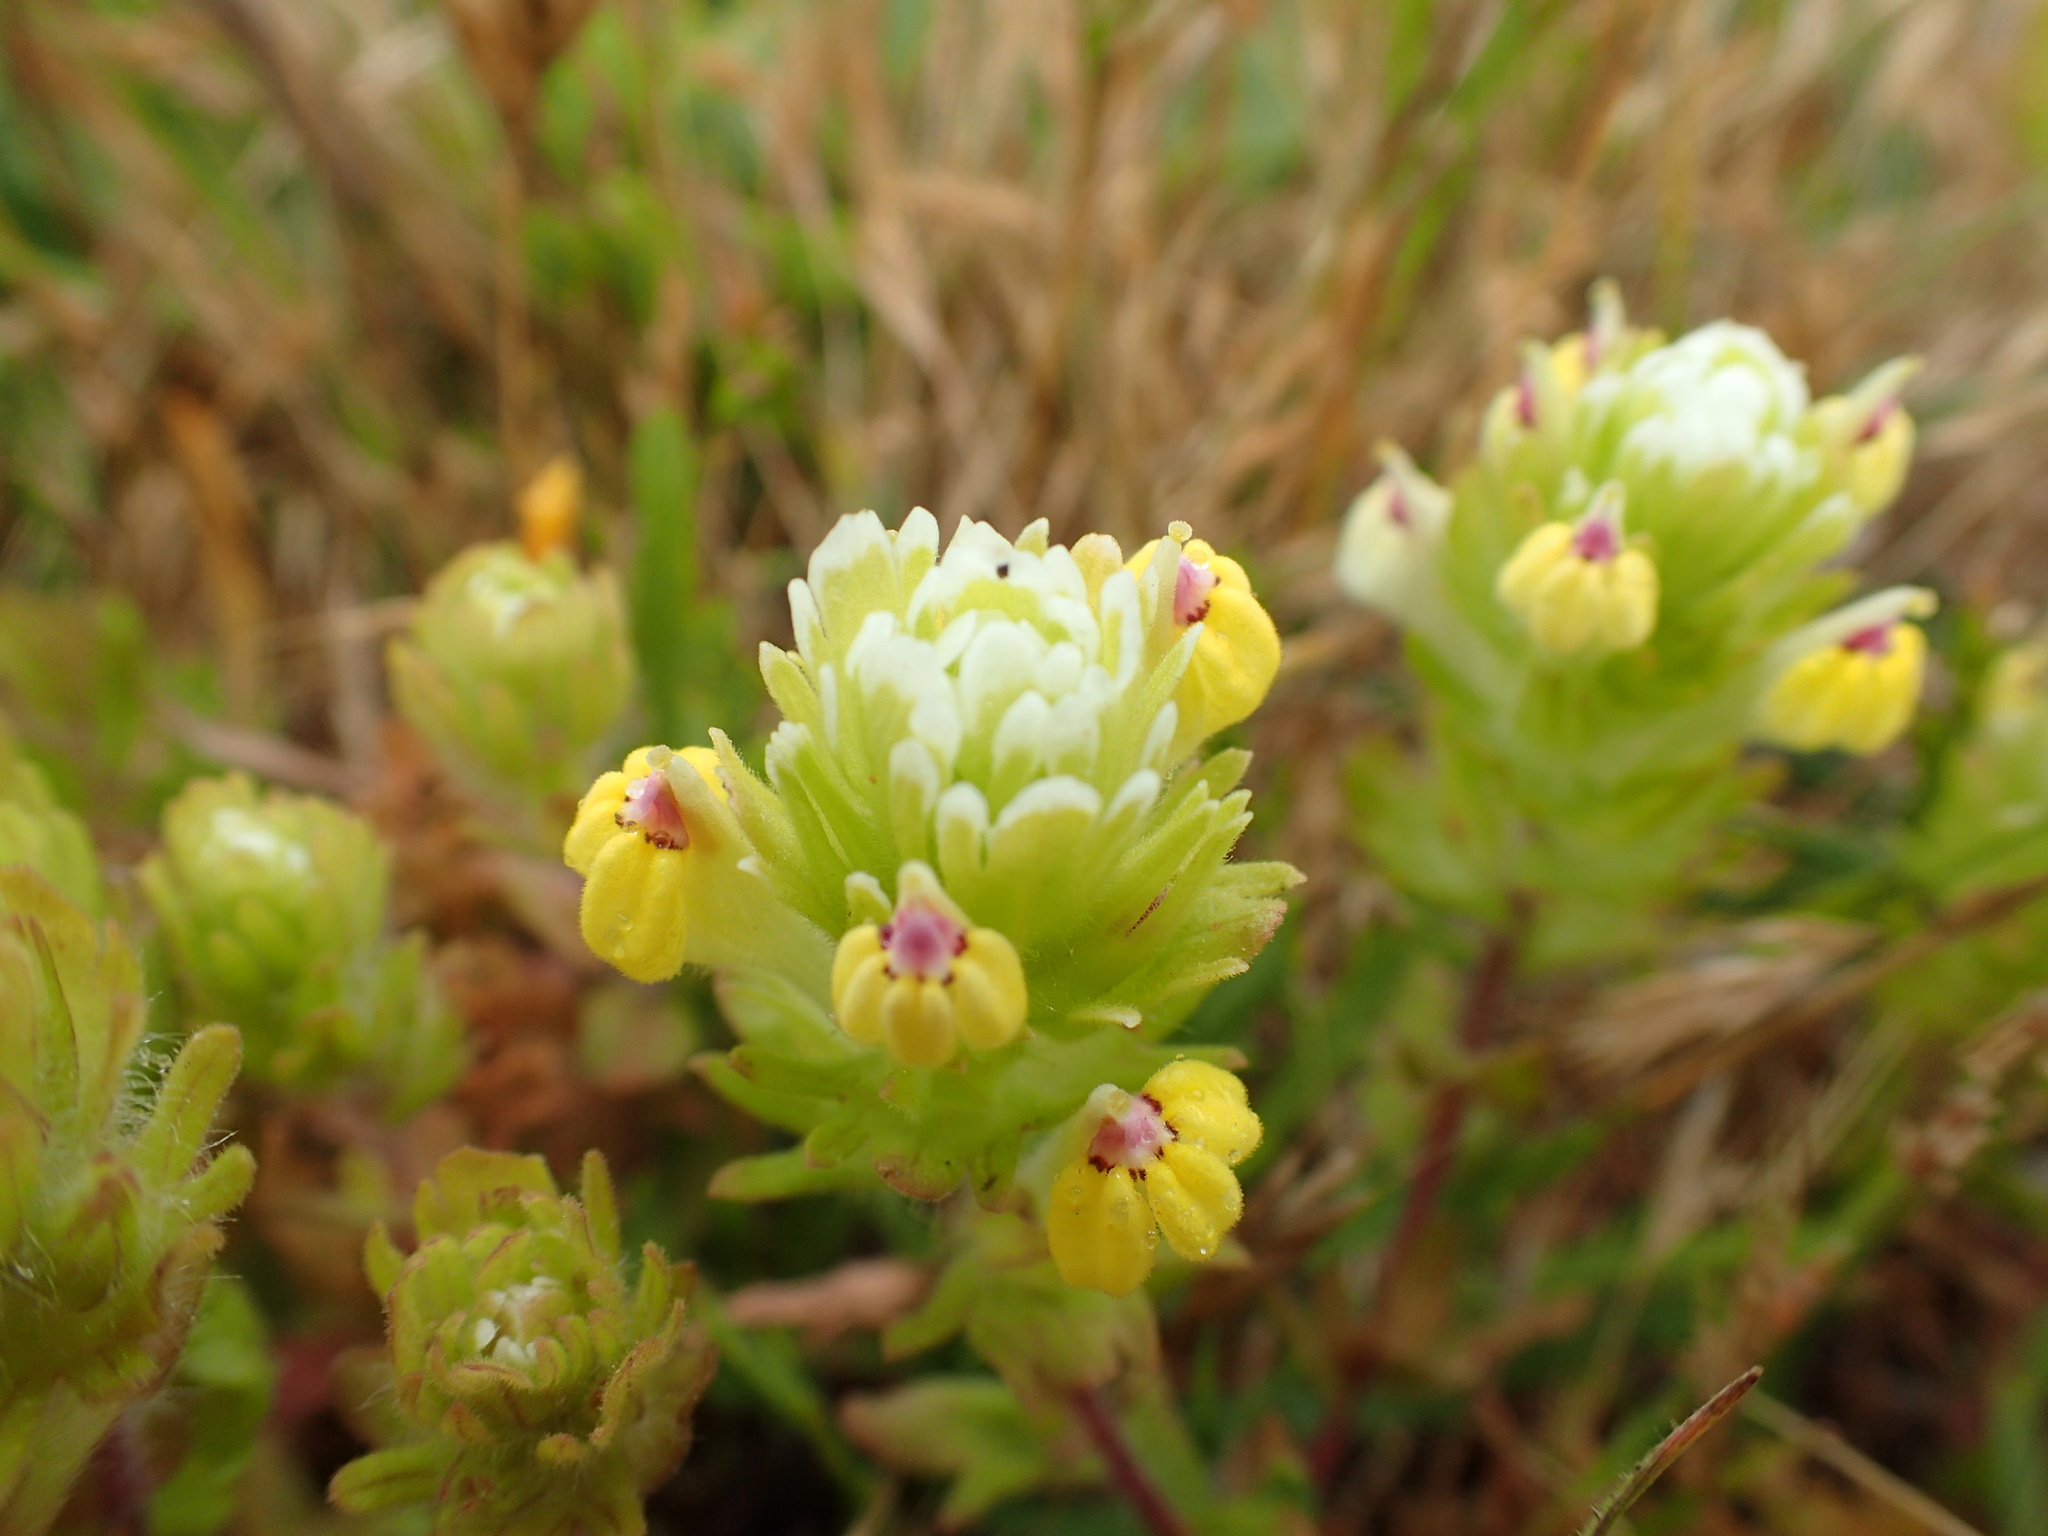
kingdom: Plantae
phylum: Tracheophyta
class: Magnoliopsida
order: Lamiales
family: Orobanchaceae
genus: Castilleja
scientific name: Castilleja ambigua
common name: Johnny-nip
